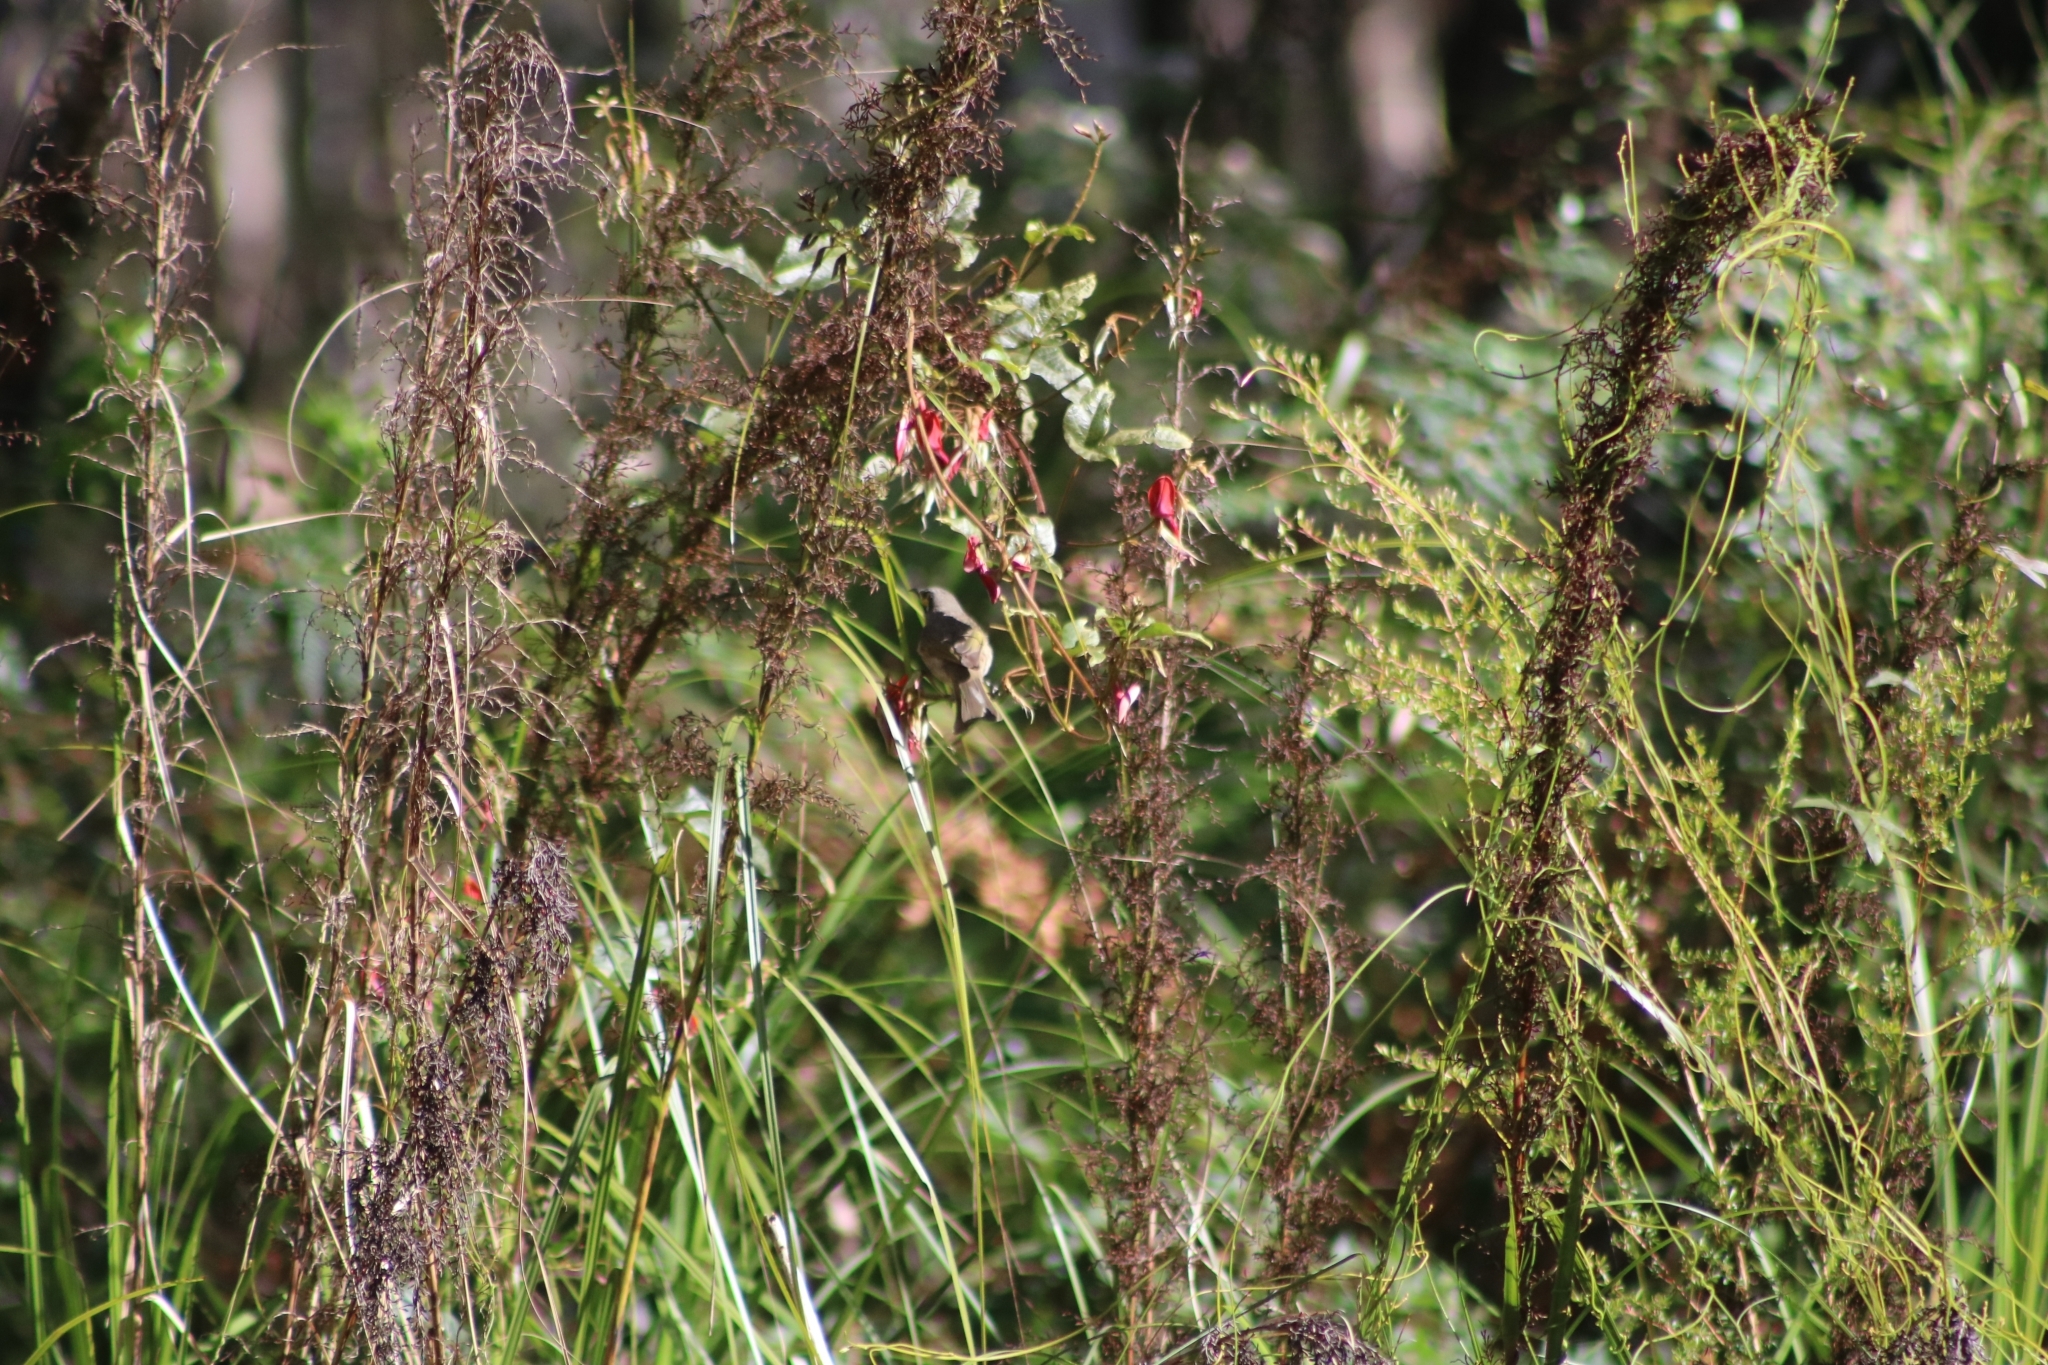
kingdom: Animalia
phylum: Chordata
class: Aves
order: Passeriformes
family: Meliphagidae
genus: Caligavis
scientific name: Caligavis chrysops
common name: Yellow-faced honeyeater
